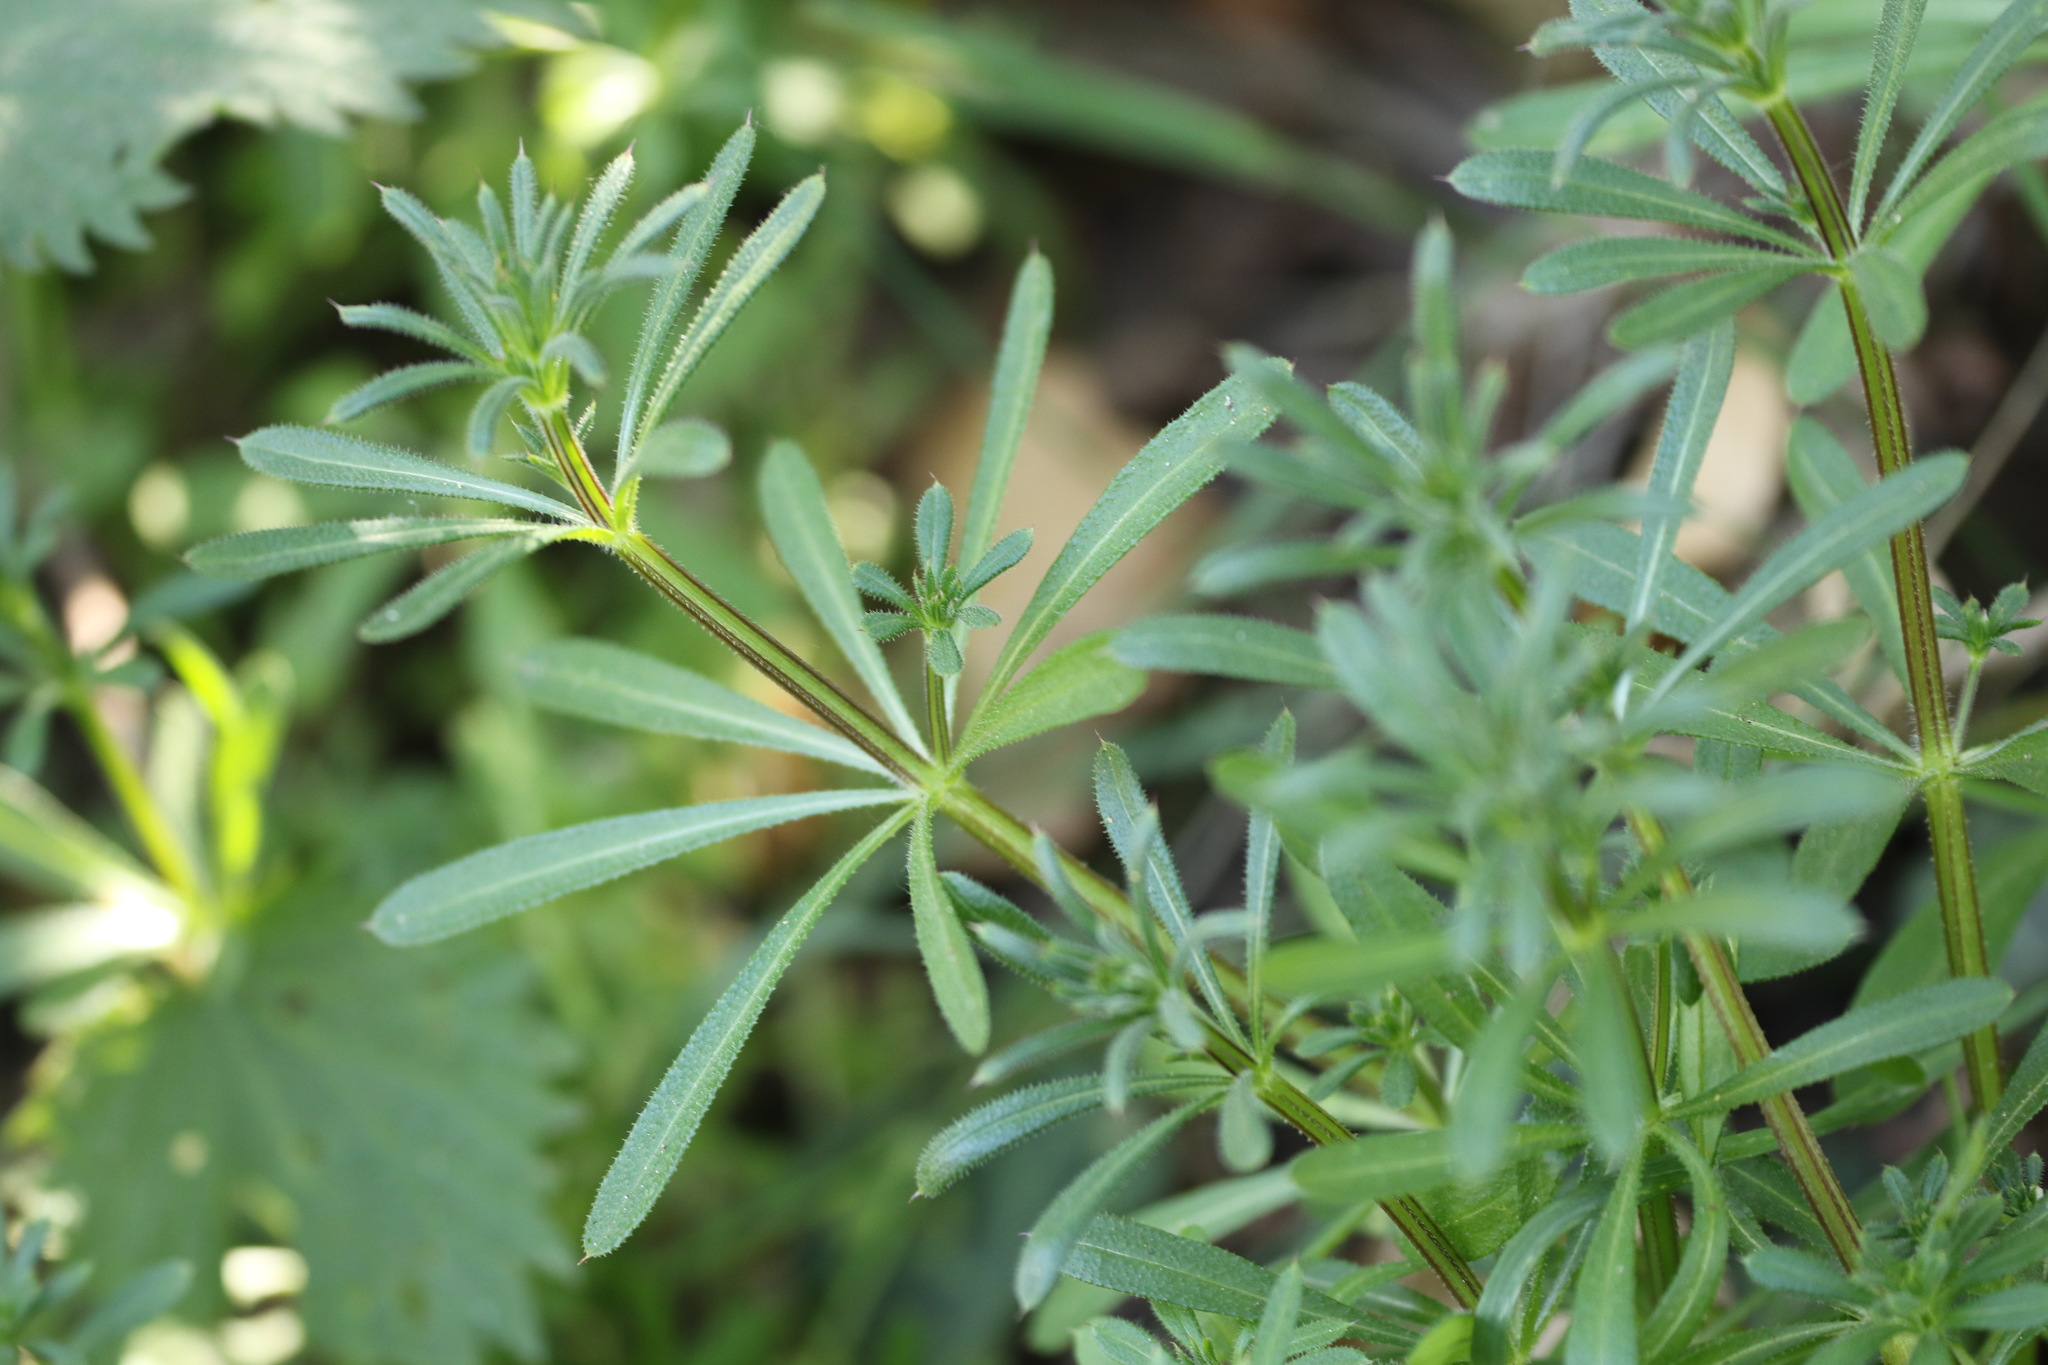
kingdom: Plantae
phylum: Tracheophyta
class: Magnoliopsida
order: Gentianales
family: Rubiaceae
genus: Galium
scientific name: Galium aparine
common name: Cleavers
